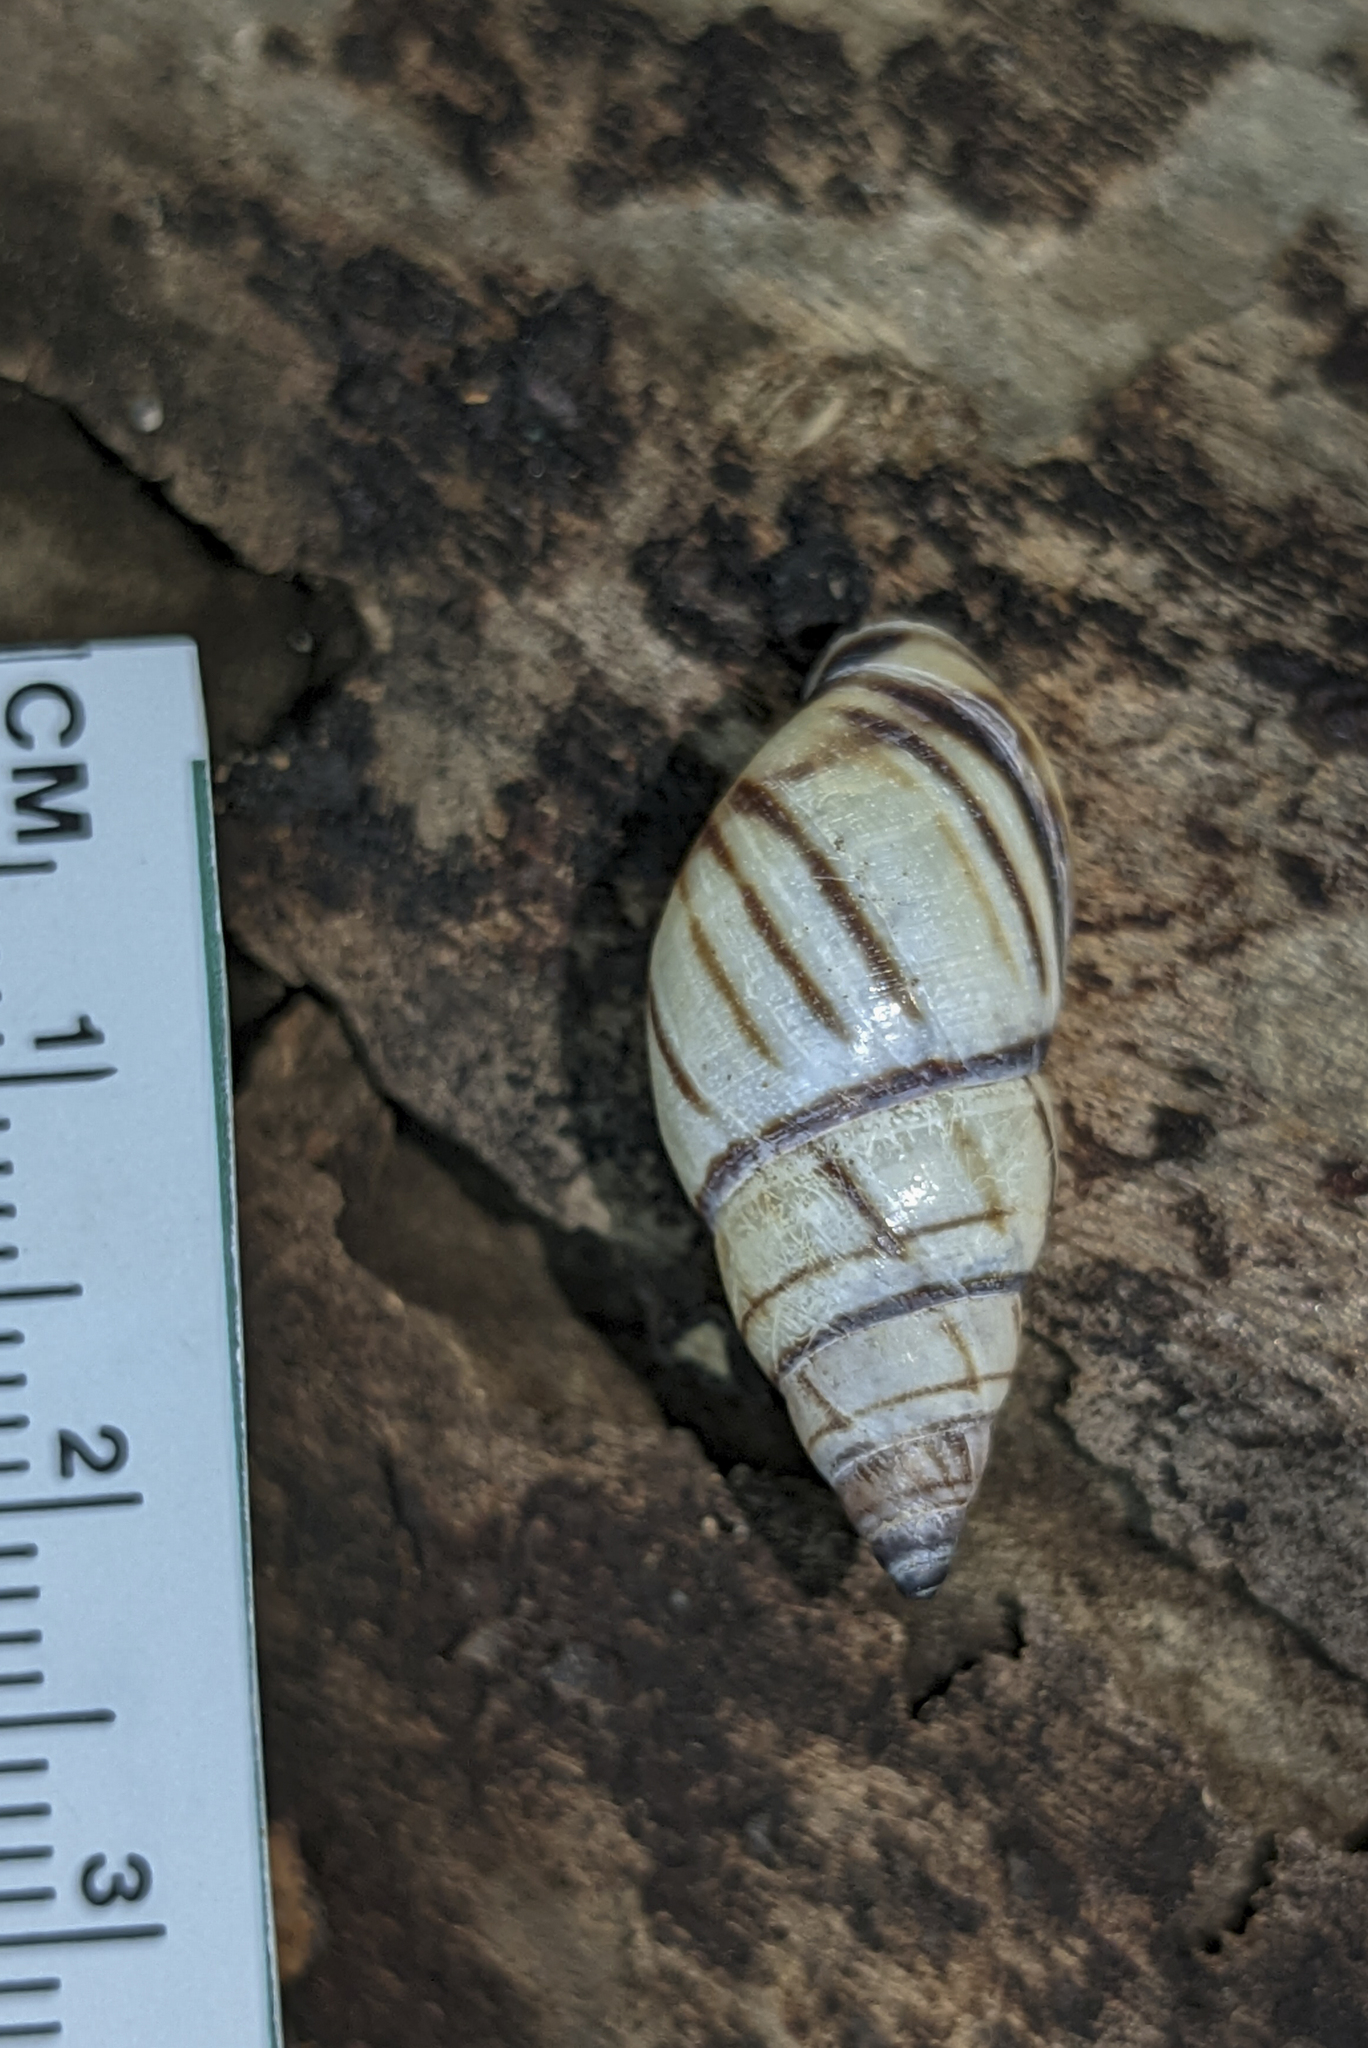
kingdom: Animalia
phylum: Mollusca
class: Gastropoda
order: Stylommatophora
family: Bulimulidae
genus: Drymaeus
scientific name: Drymaeus
